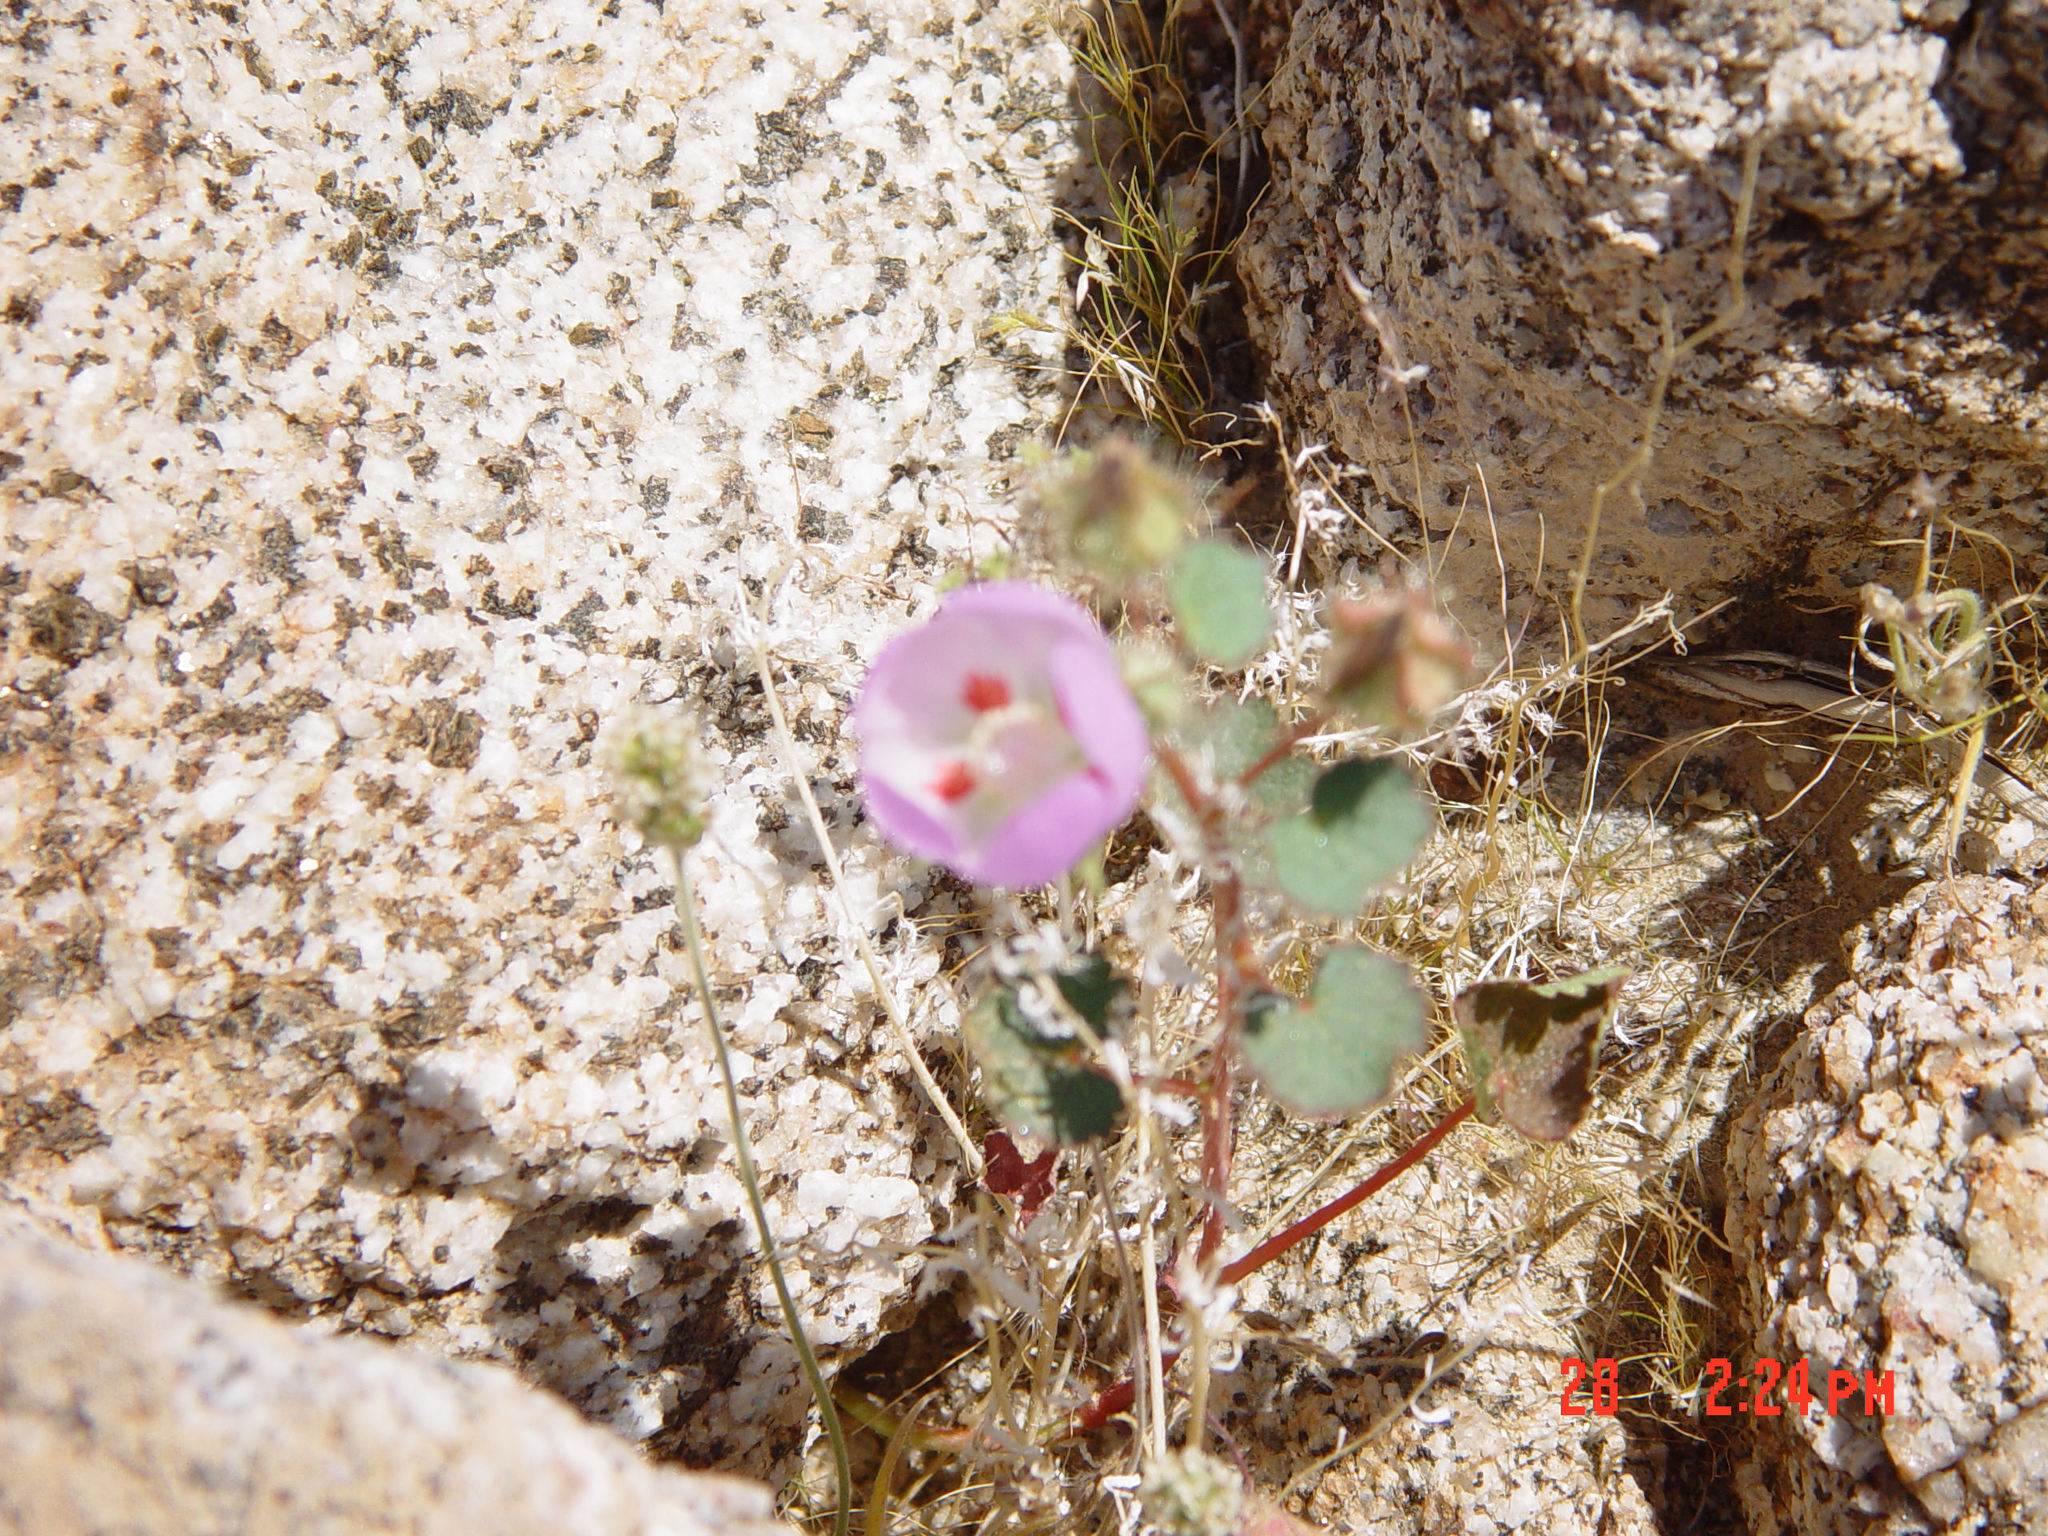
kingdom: Plantae
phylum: Tracheophyta
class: Magnoliopsida
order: Malvales
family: Malvaceae
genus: Eremalche
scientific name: Eremalche rotundifolia
